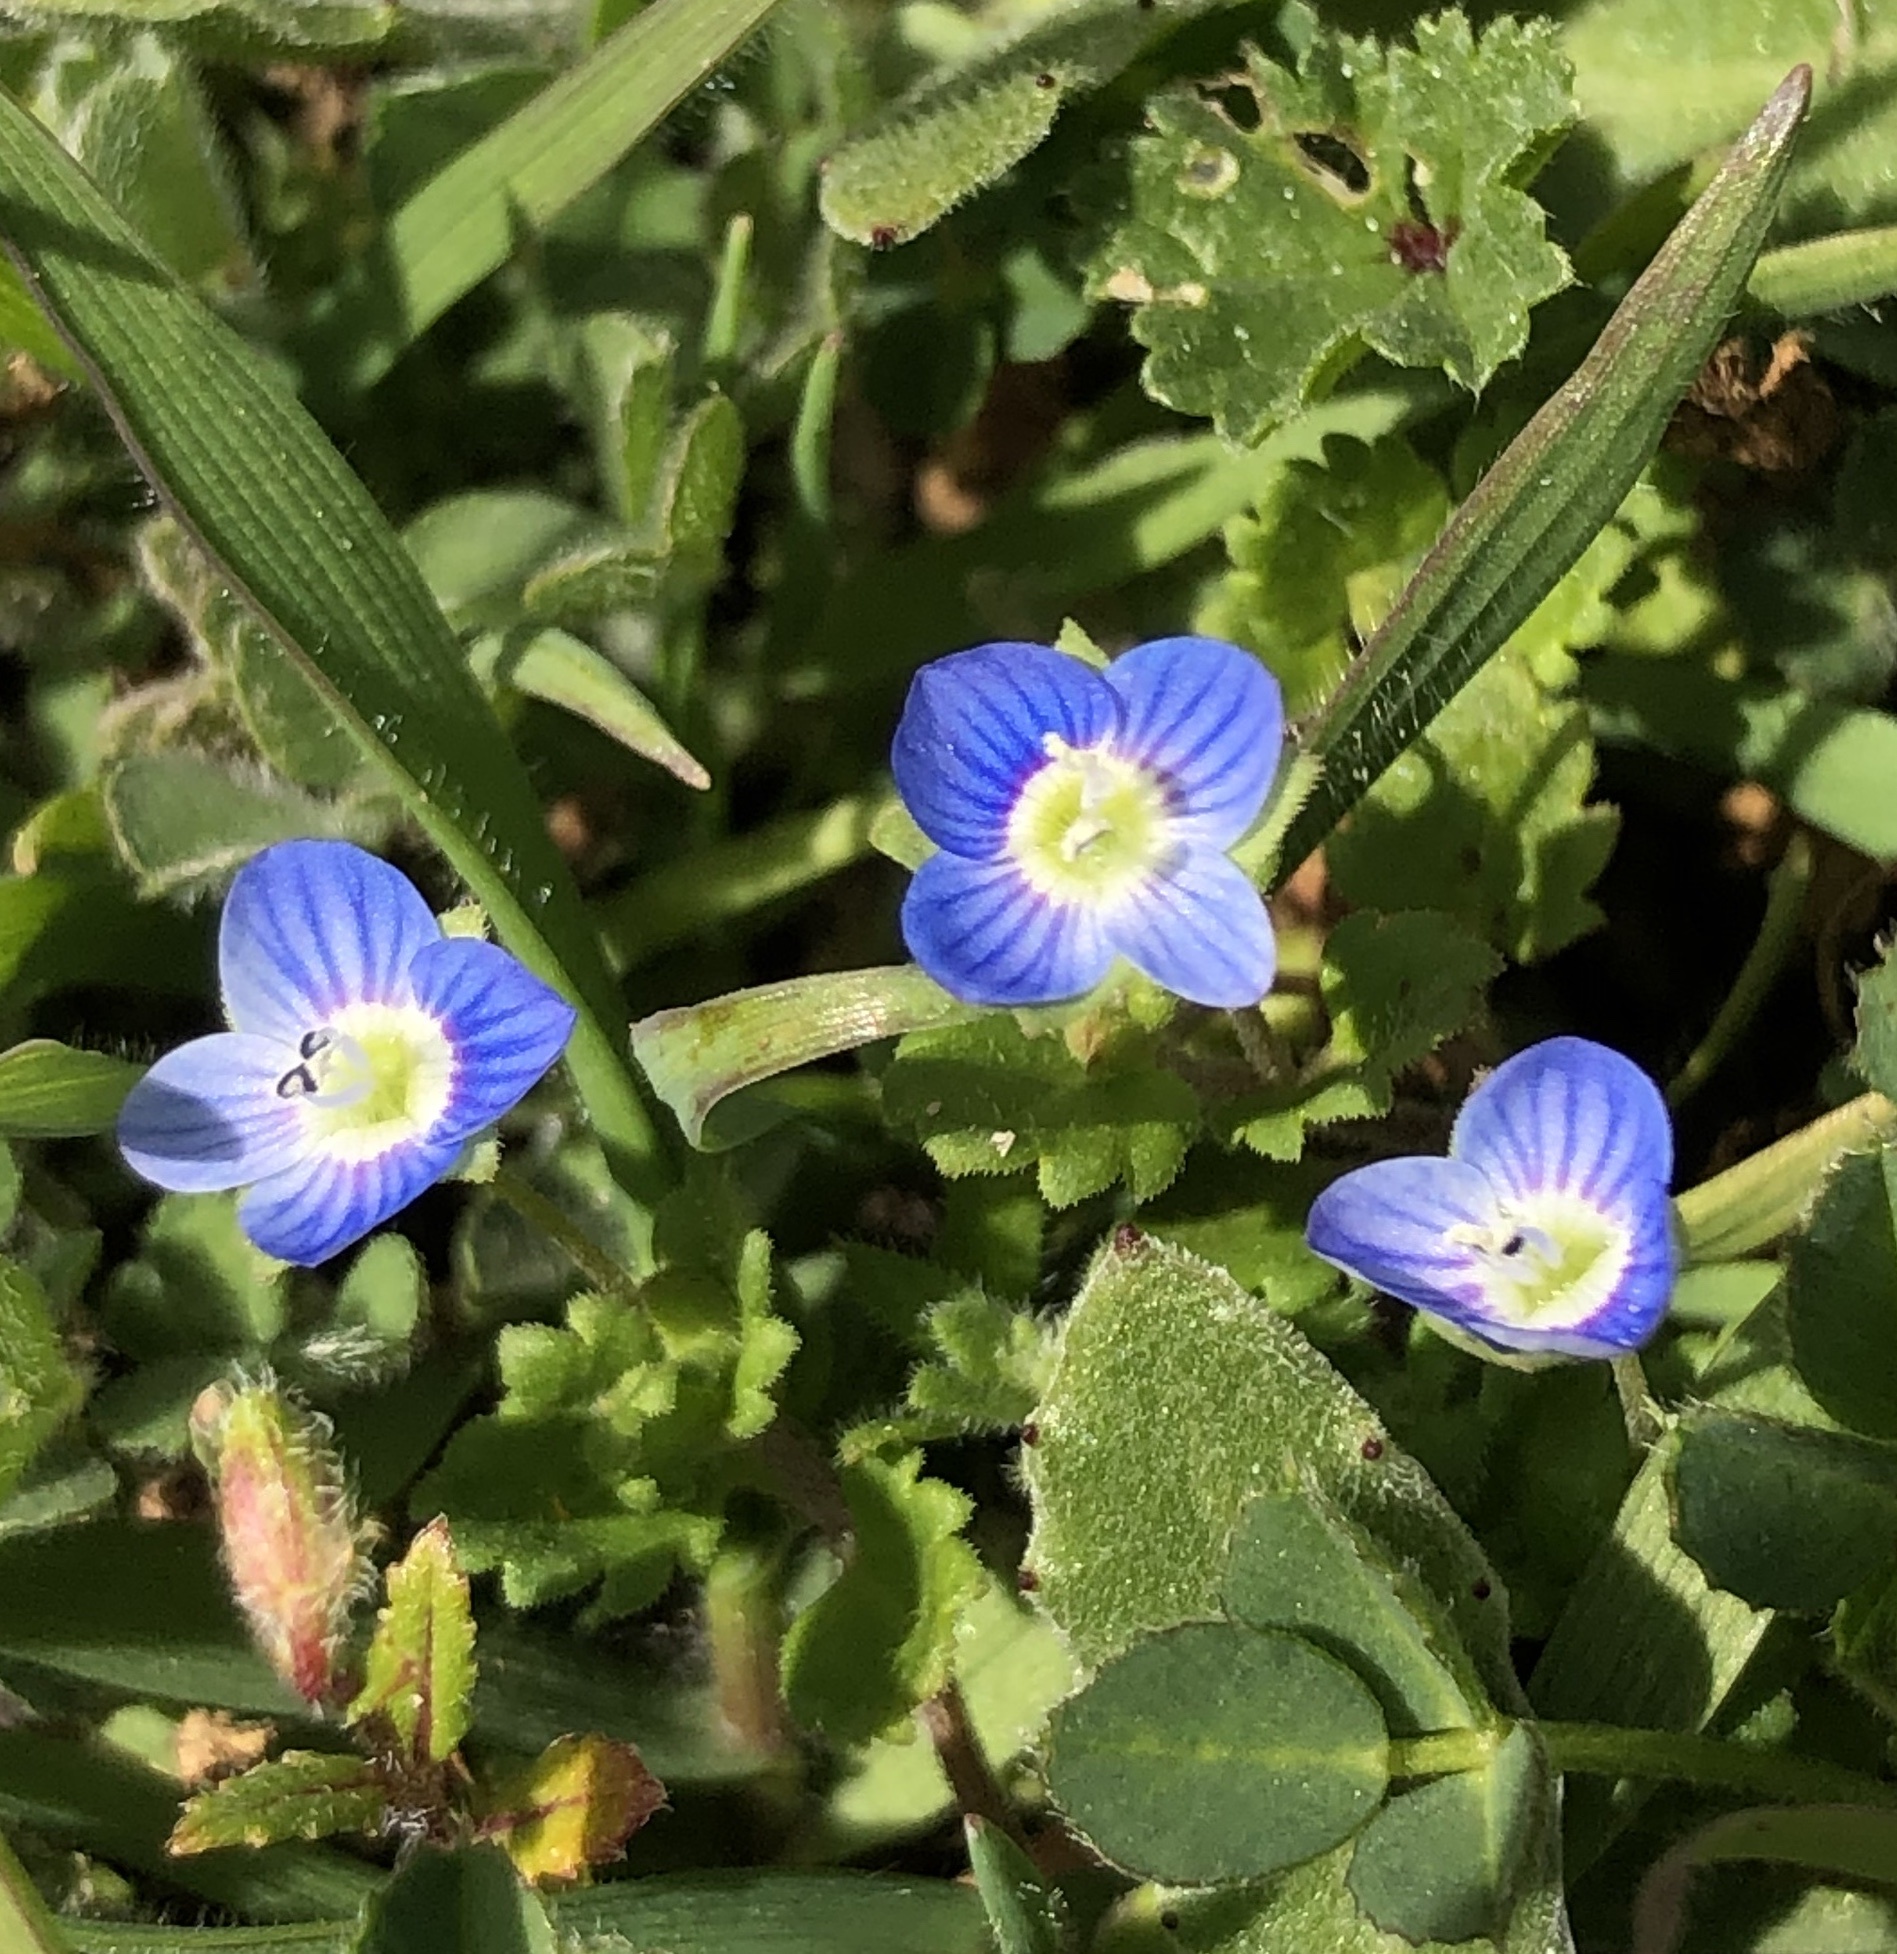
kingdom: Plantae
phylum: Tracheophyta
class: Magnoliopsida
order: Lamiales
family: Plantaginaceae
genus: Veronica
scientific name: Veronica persica
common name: Common field-speedwell
